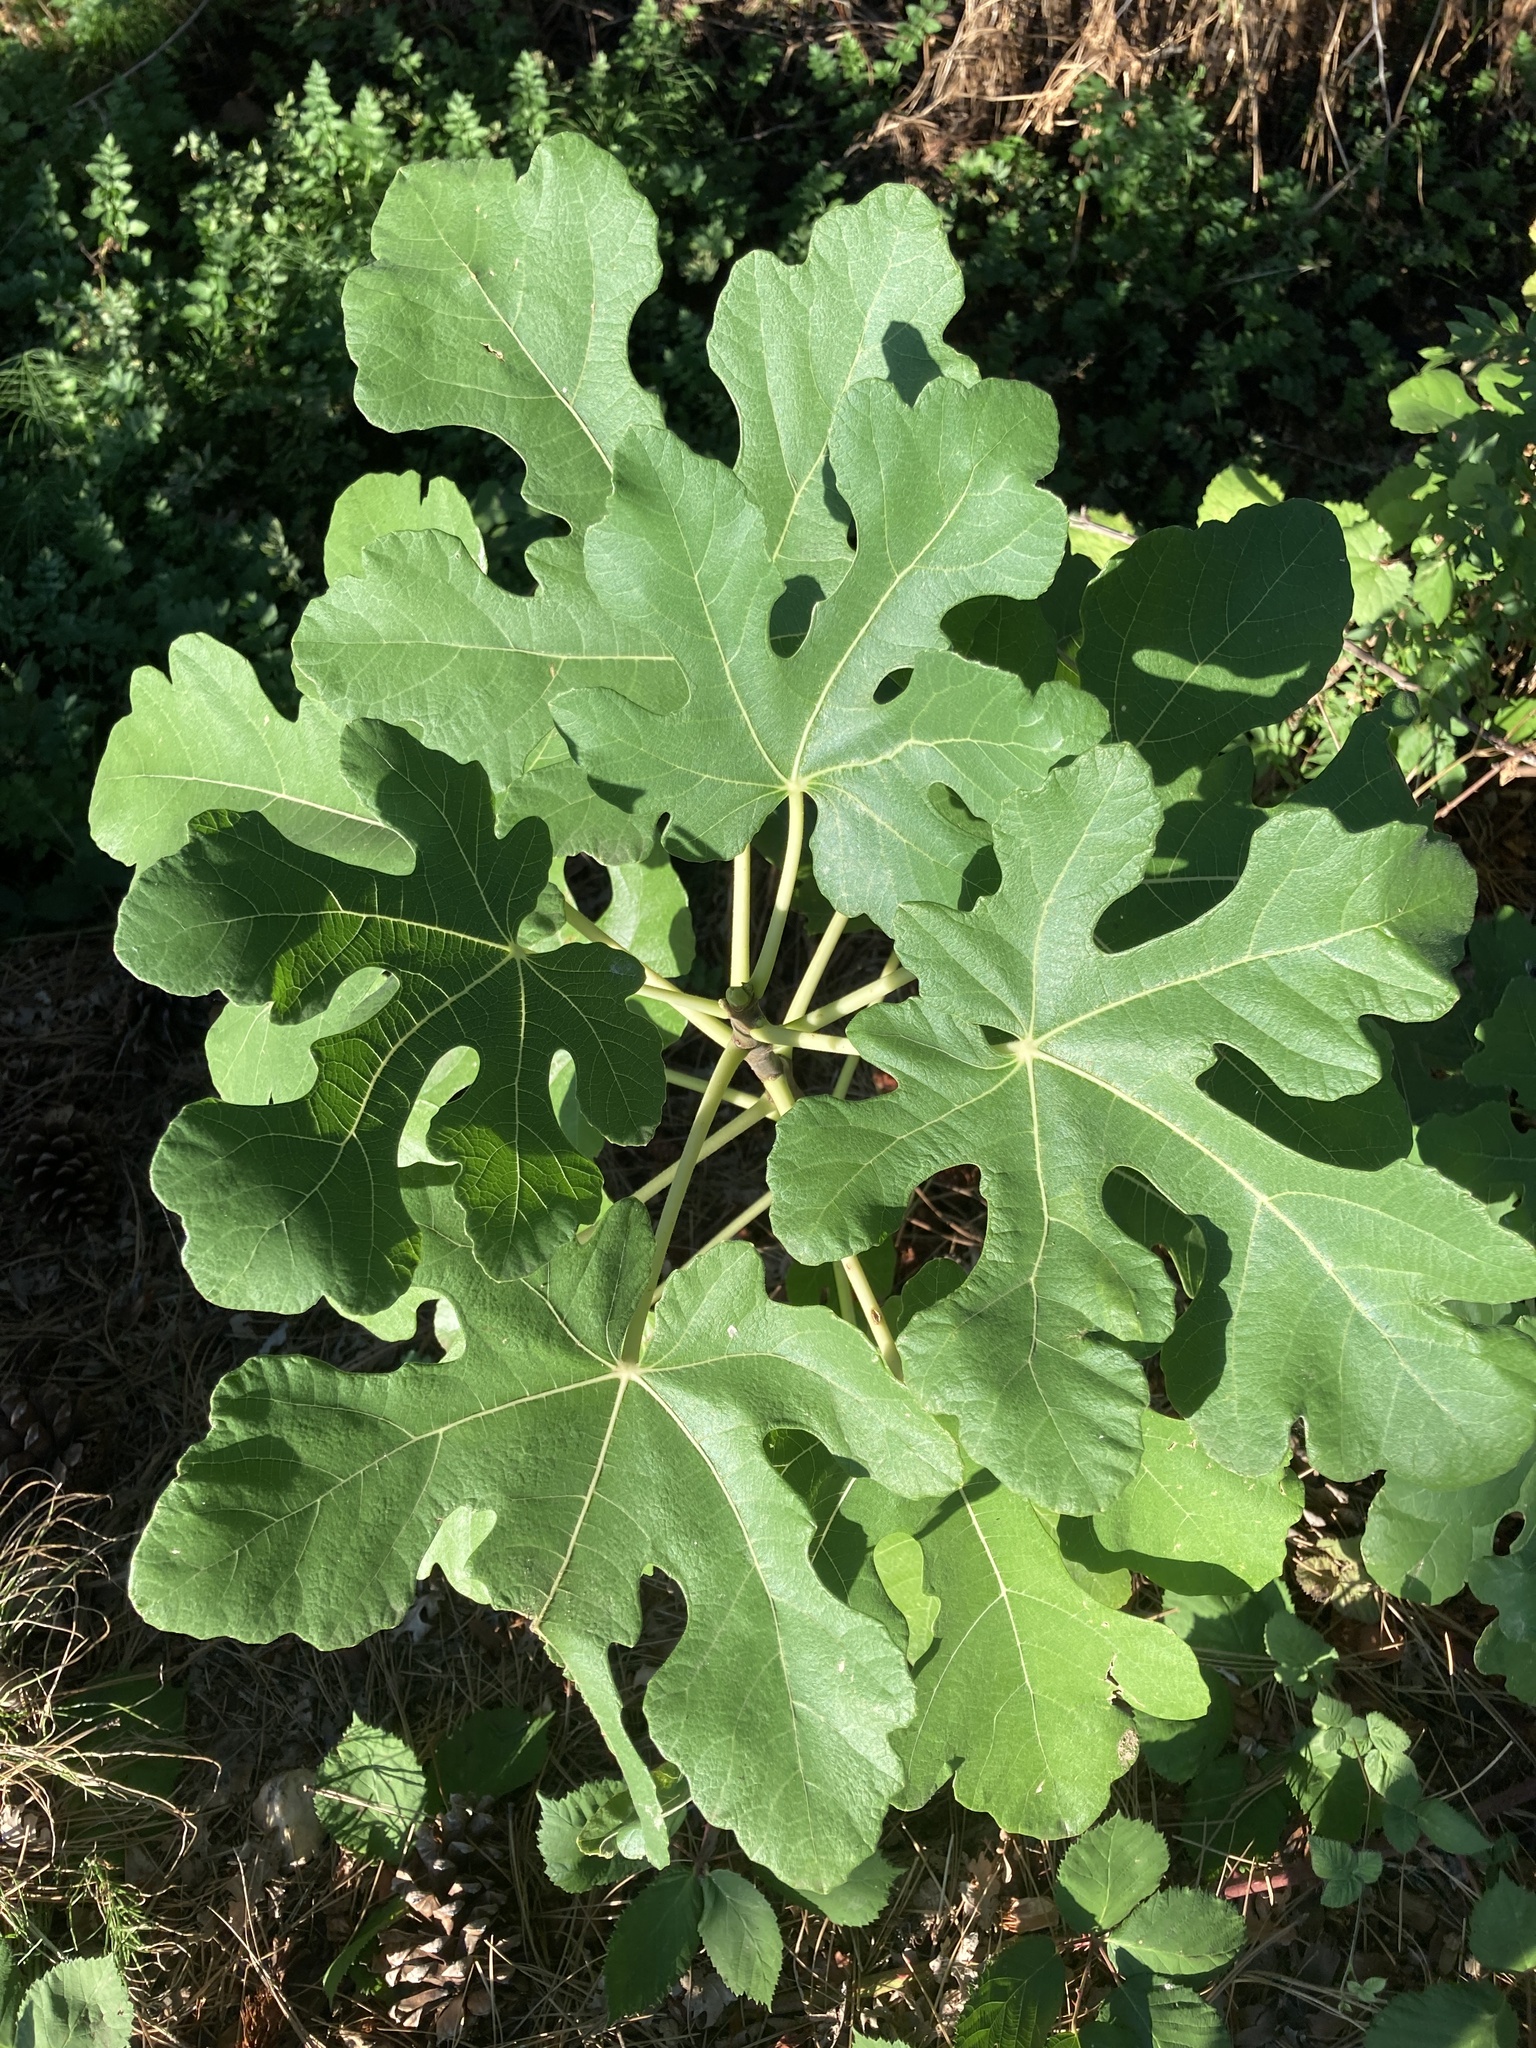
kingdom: Plantae
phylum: Tracheophyta
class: Magnoliopsida
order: Rosales
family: Moraceae
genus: Ficus
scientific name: Ficus carica
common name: Fig
